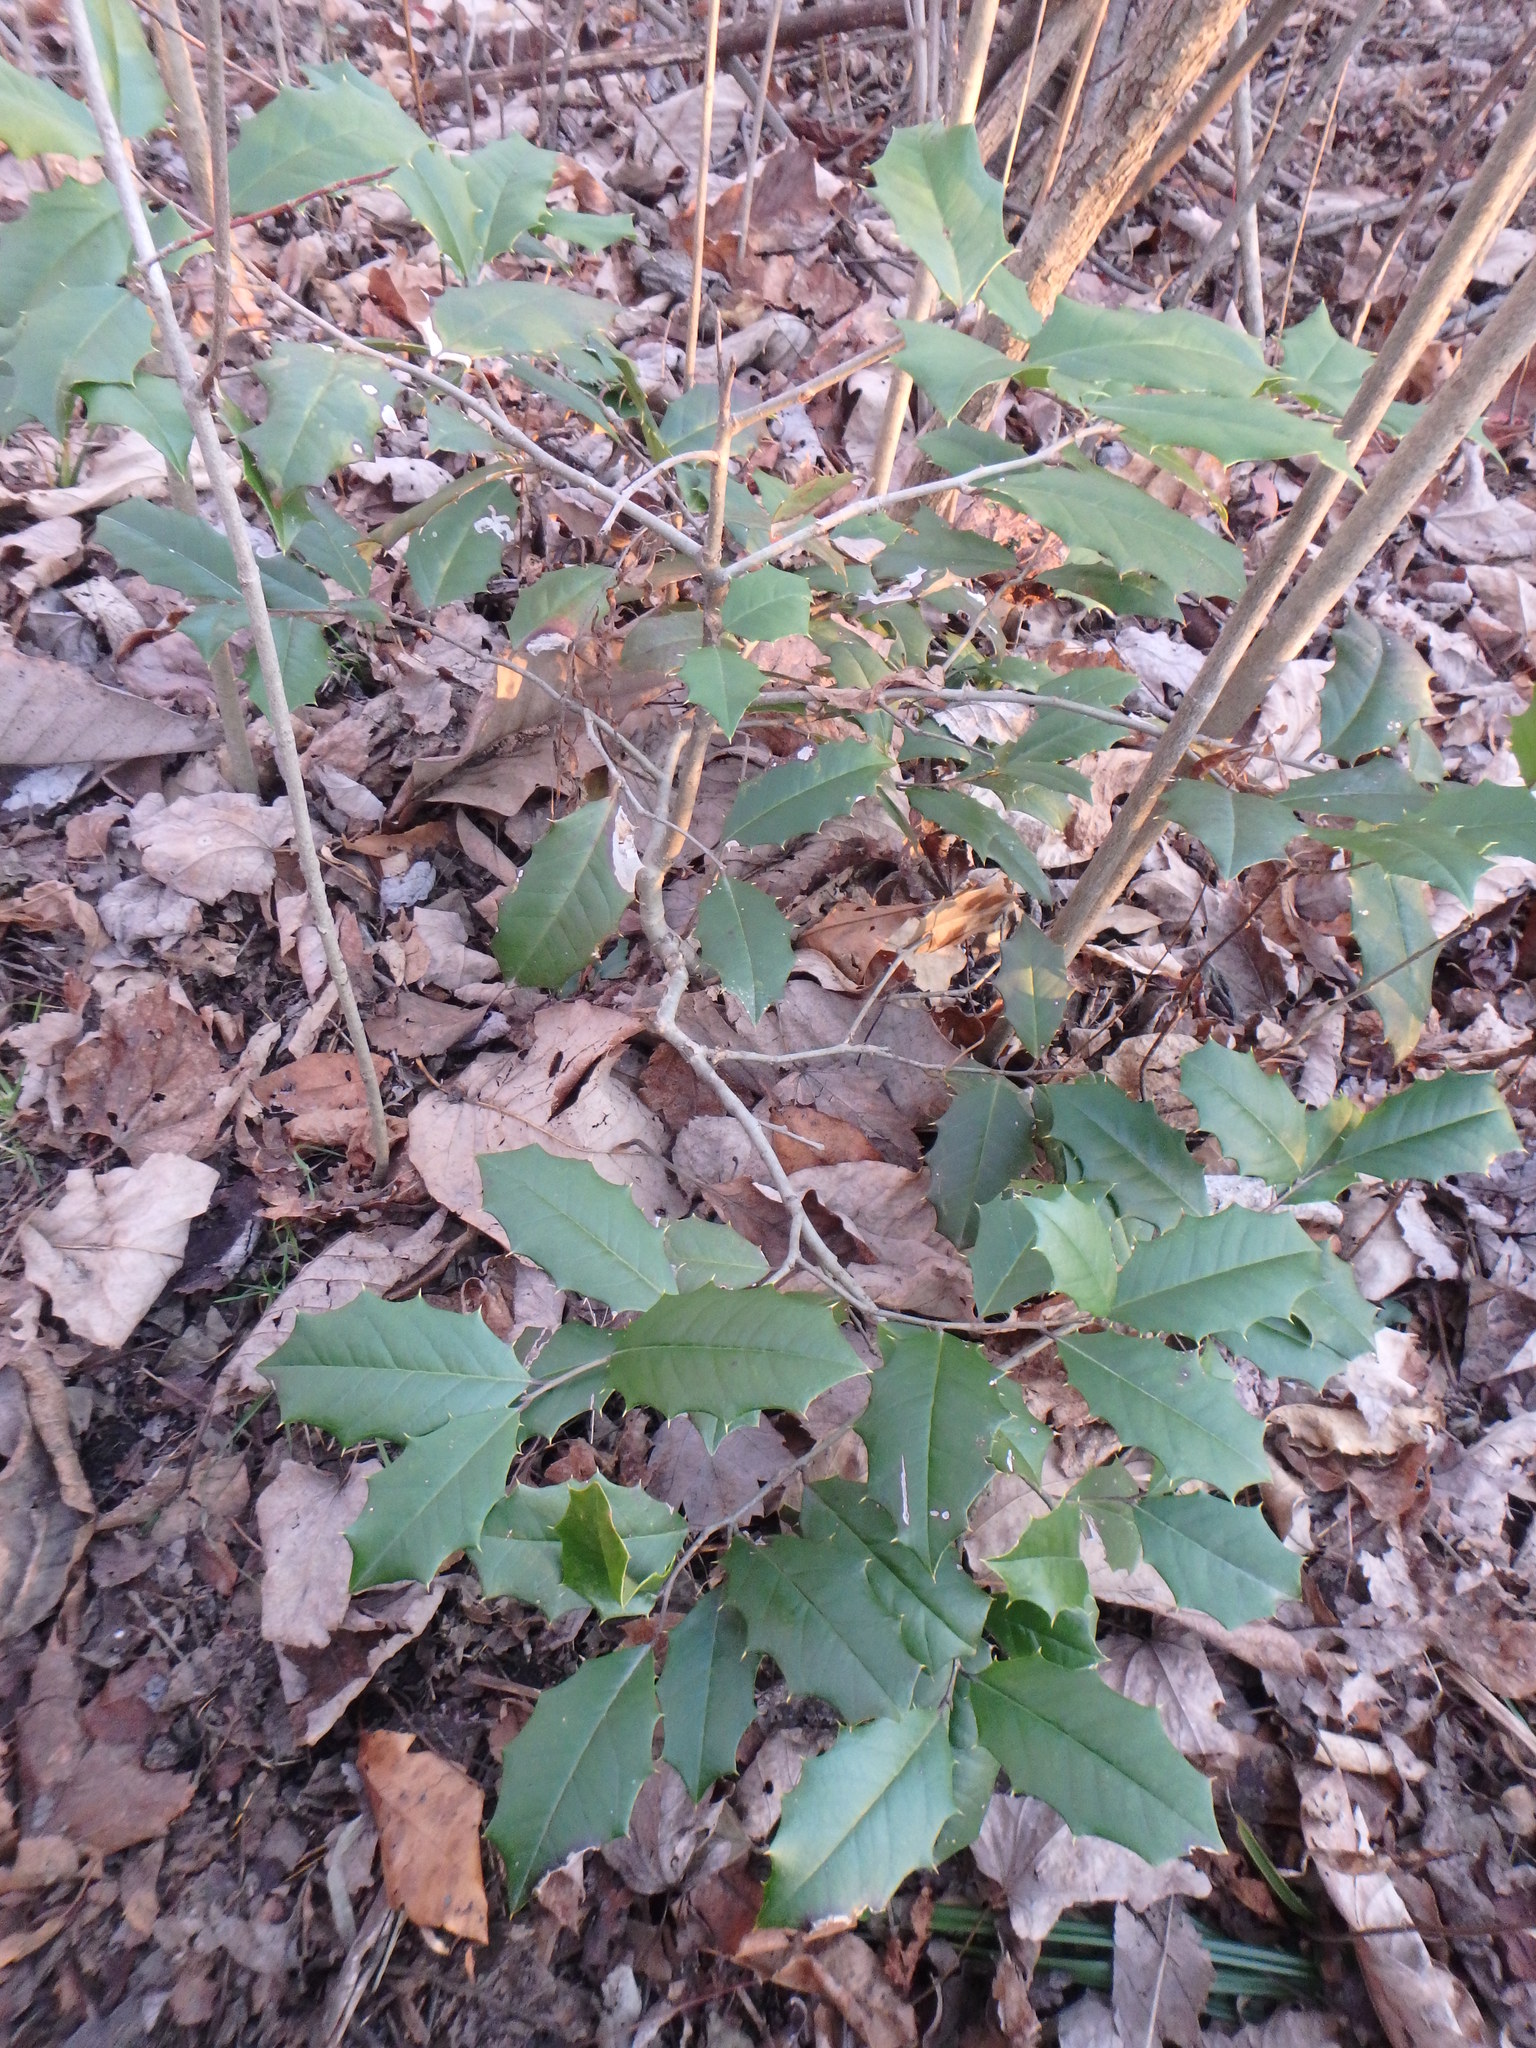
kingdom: Plantae
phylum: Tracheophyta
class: Magnoliopsida
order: Aquifoliales
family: Aquifoliaceae
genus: Ilex
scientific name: Ilex opaca
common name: American holly
